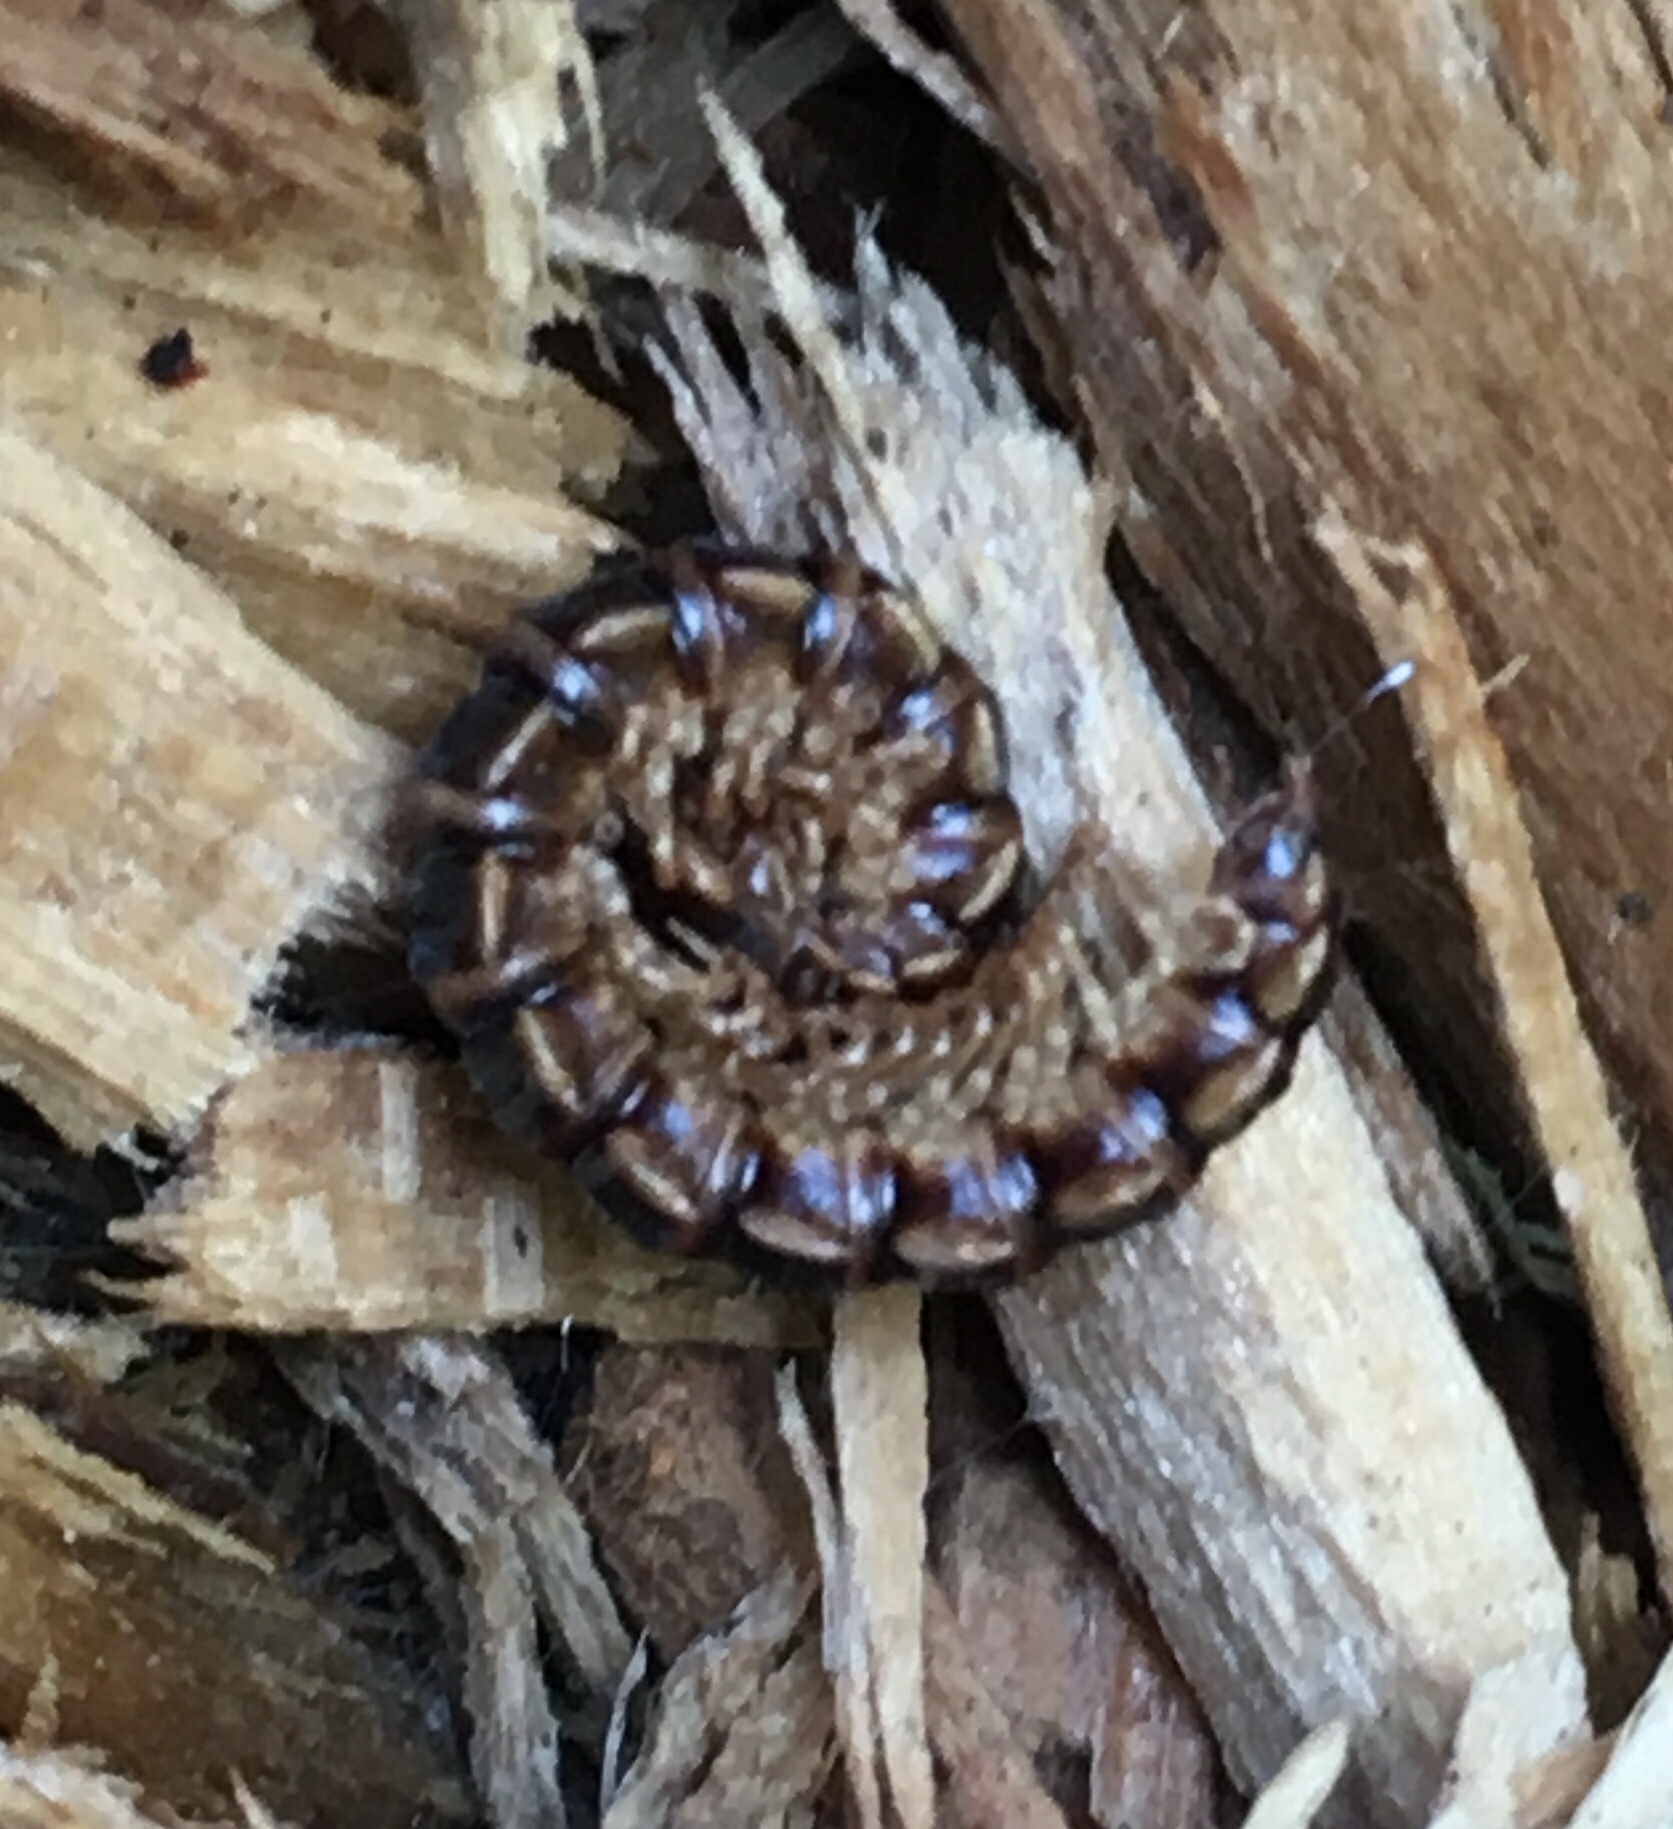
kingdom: Animalia
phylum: Arthropoda
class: Diplopoda
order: Polydesmida
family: Paradoxosomatidae
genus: Oxidus
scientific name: Oxidus gracilis
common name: Greenhouse millipede
